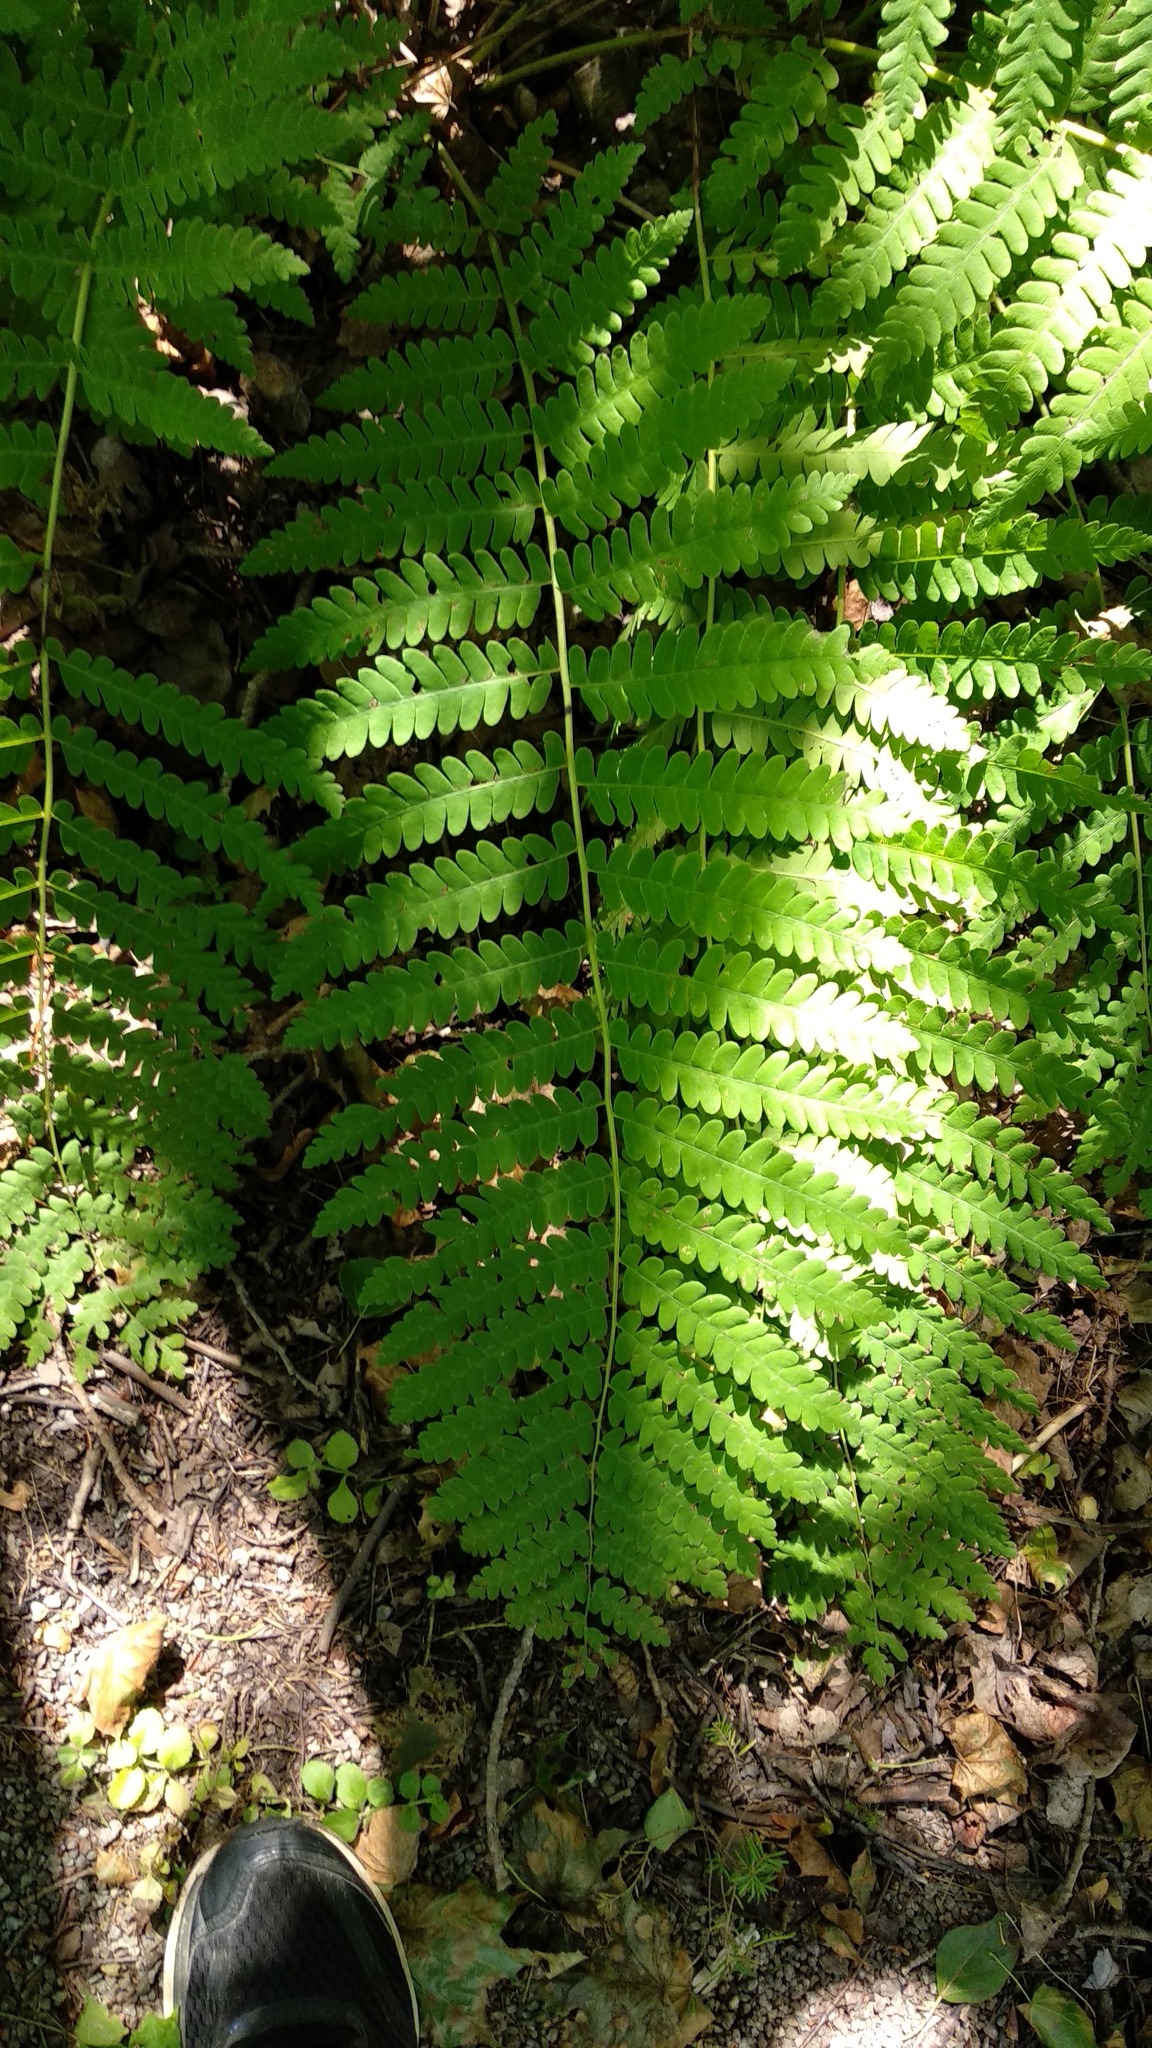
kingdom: Plantae
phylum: Tracheophyta
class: Polypodiopsida
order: Osmundales
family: Osmundaceae
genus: Claytosmunda
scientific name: Claytosmunda claytoniana
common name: Clayton's fern
